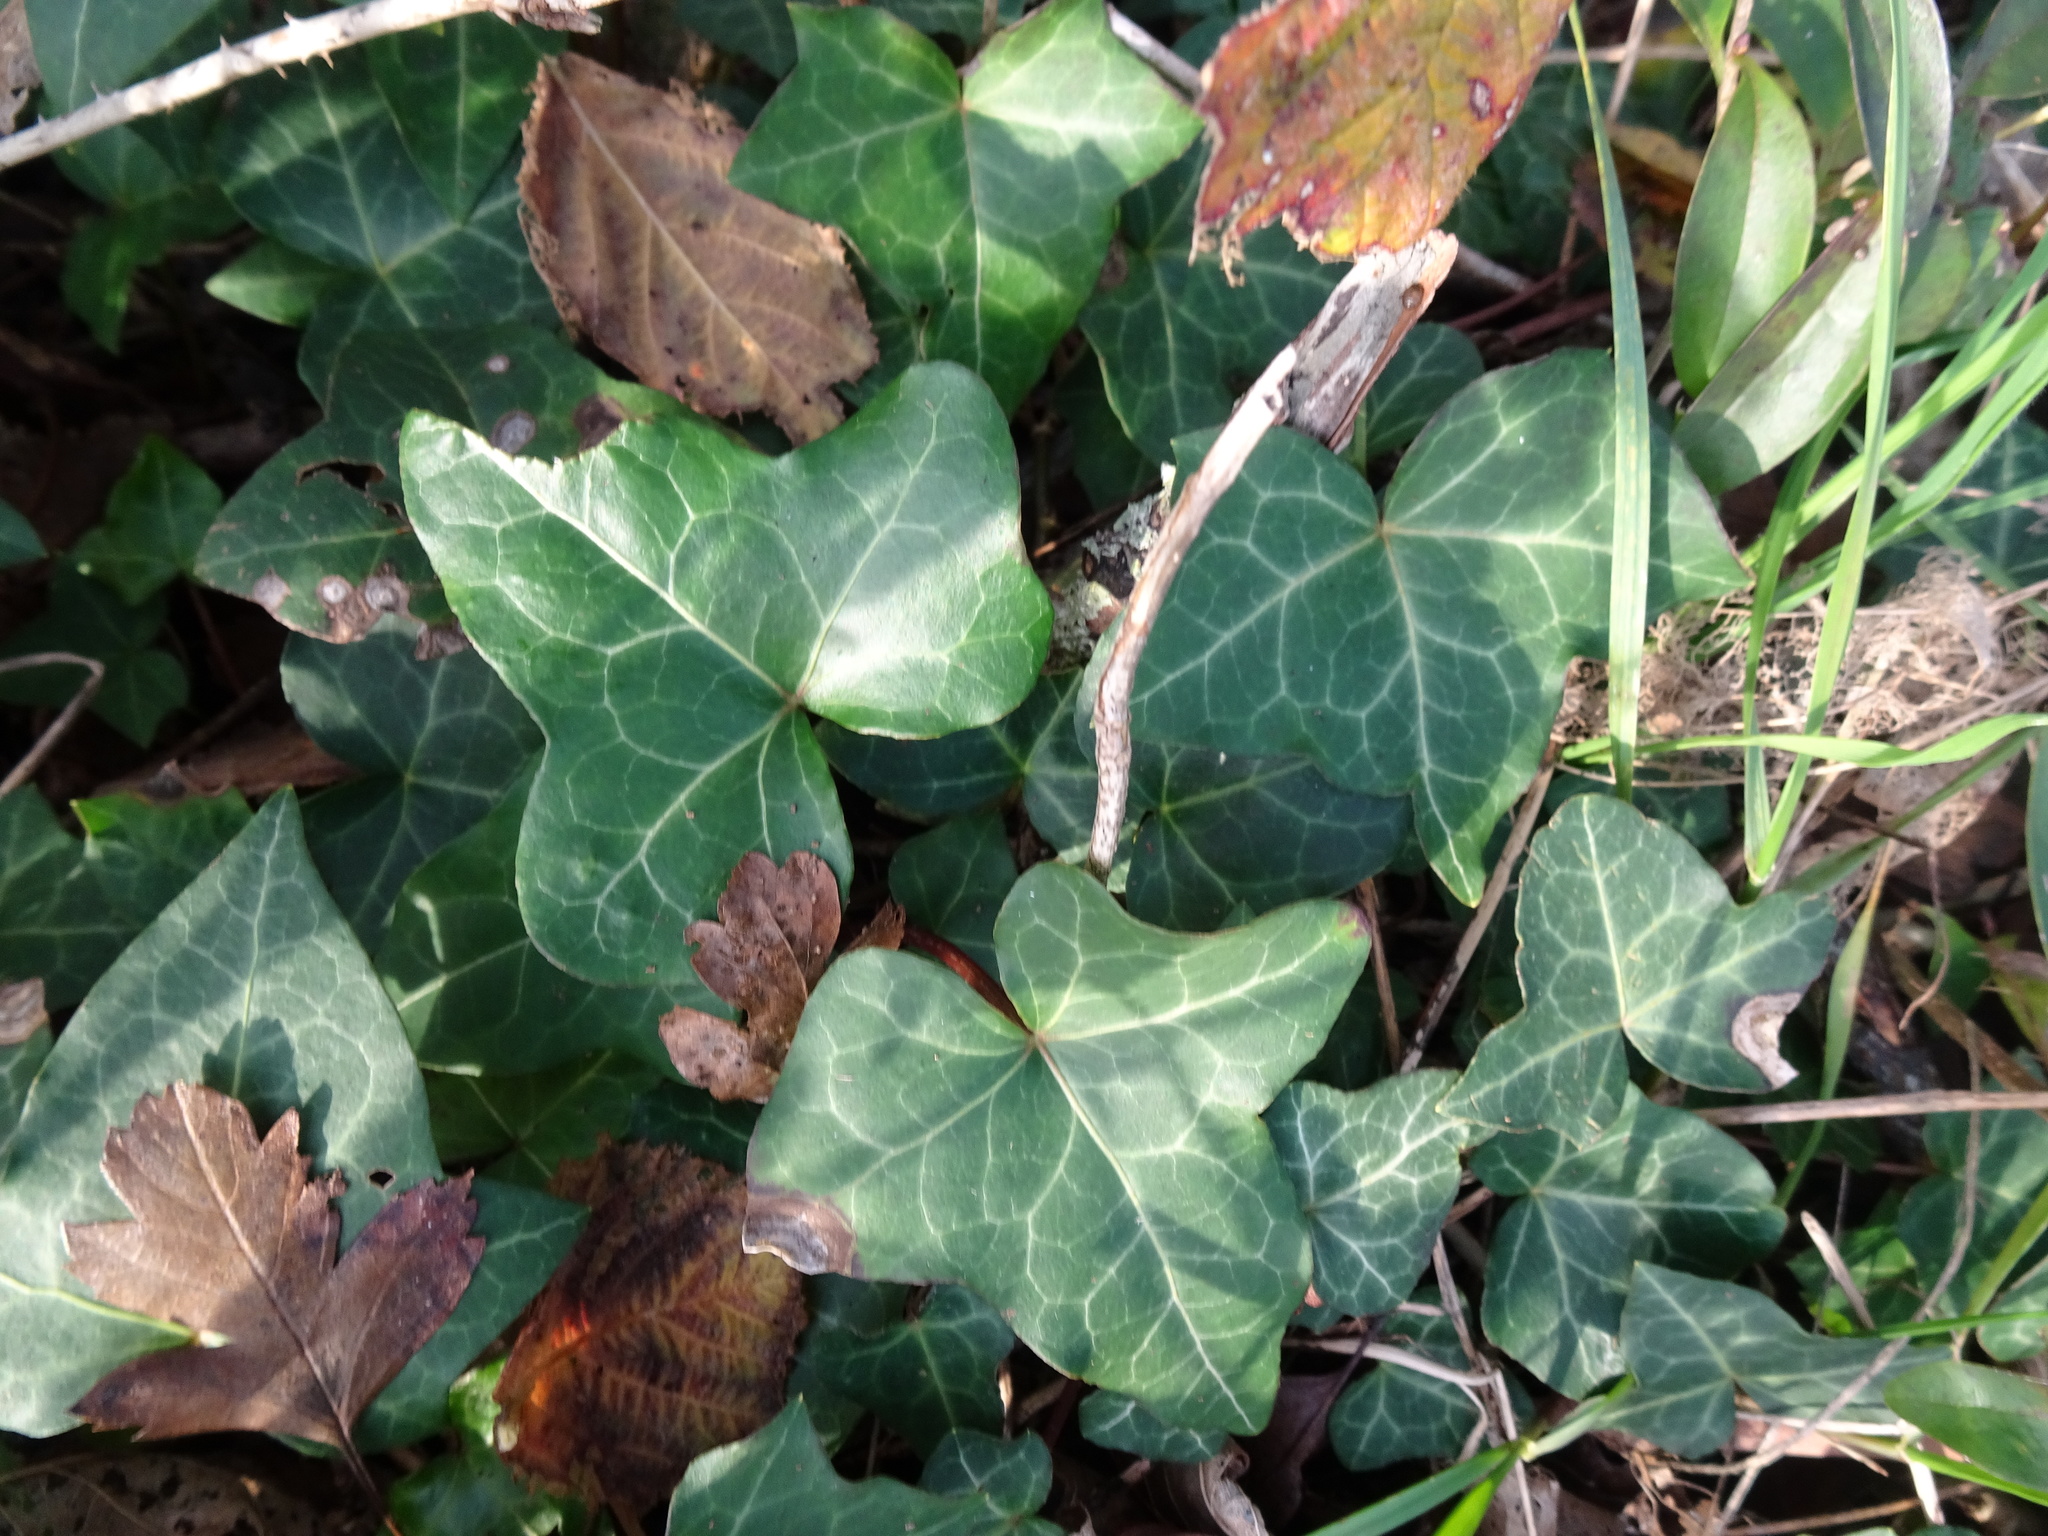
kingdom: Plantae
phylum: Tracheophyta
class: Magnoliopsida
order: Apiales
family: Araliaceae
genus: Hedera
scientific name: Hedera helix
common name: Ivy
